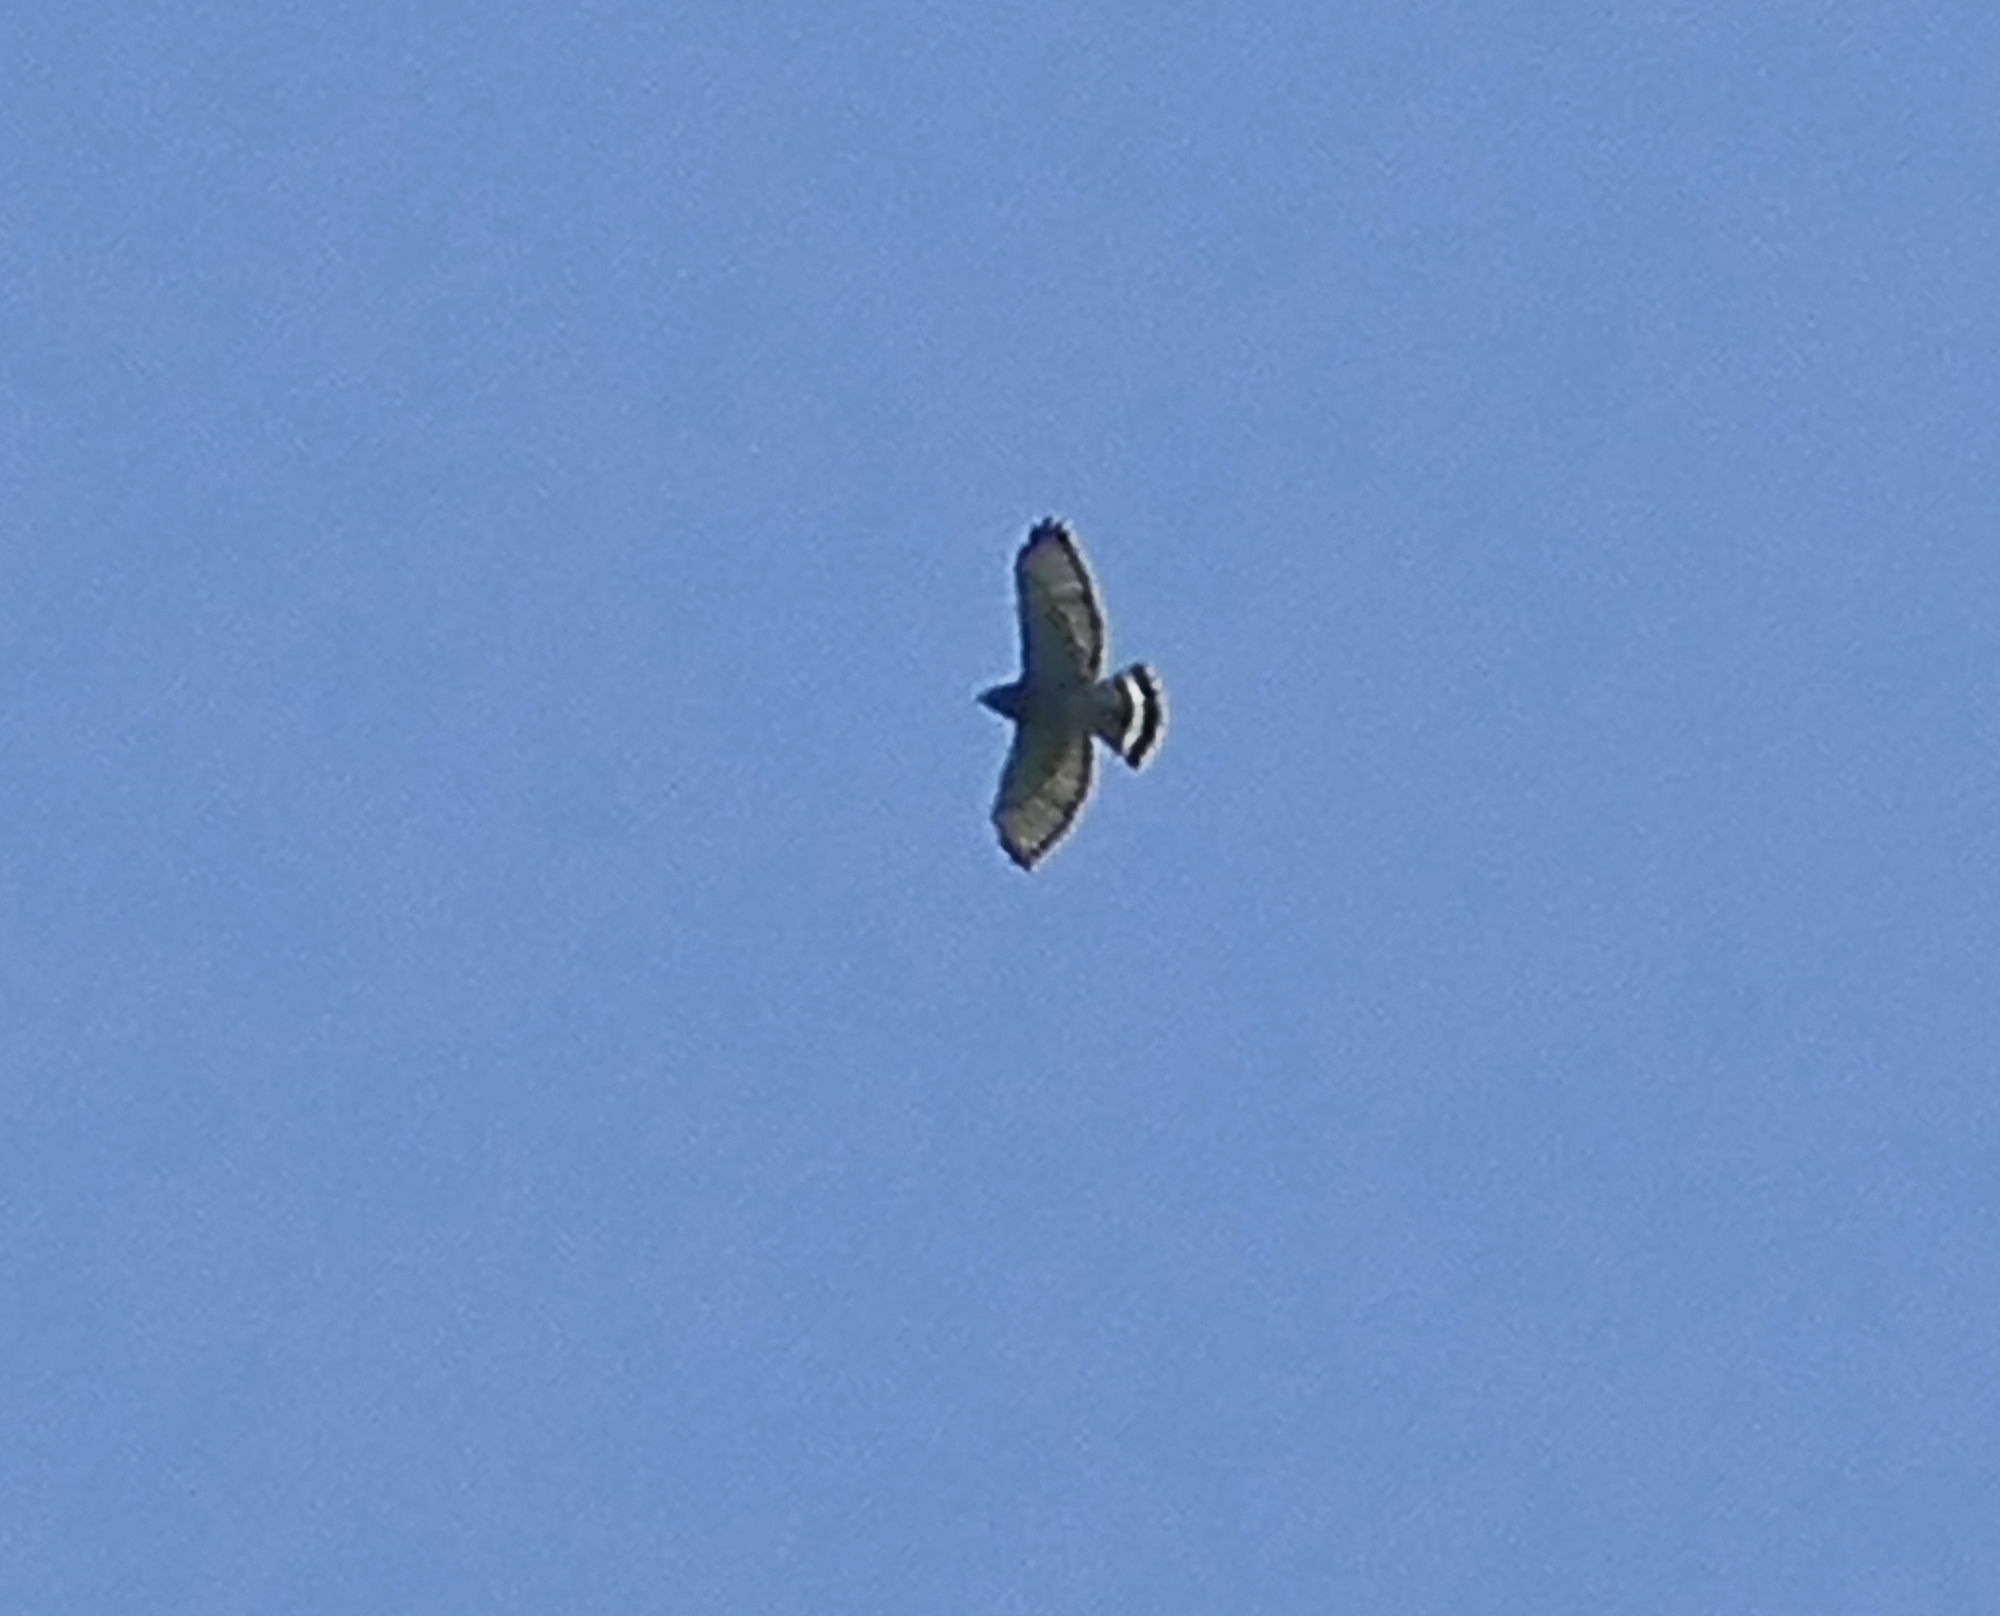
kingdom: Animalia
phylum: Chordata
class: Aves
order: Accipitriformes
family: Accipitridae
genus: Buteo
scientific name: Buteo platypterus
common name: Broad-winged hawk
